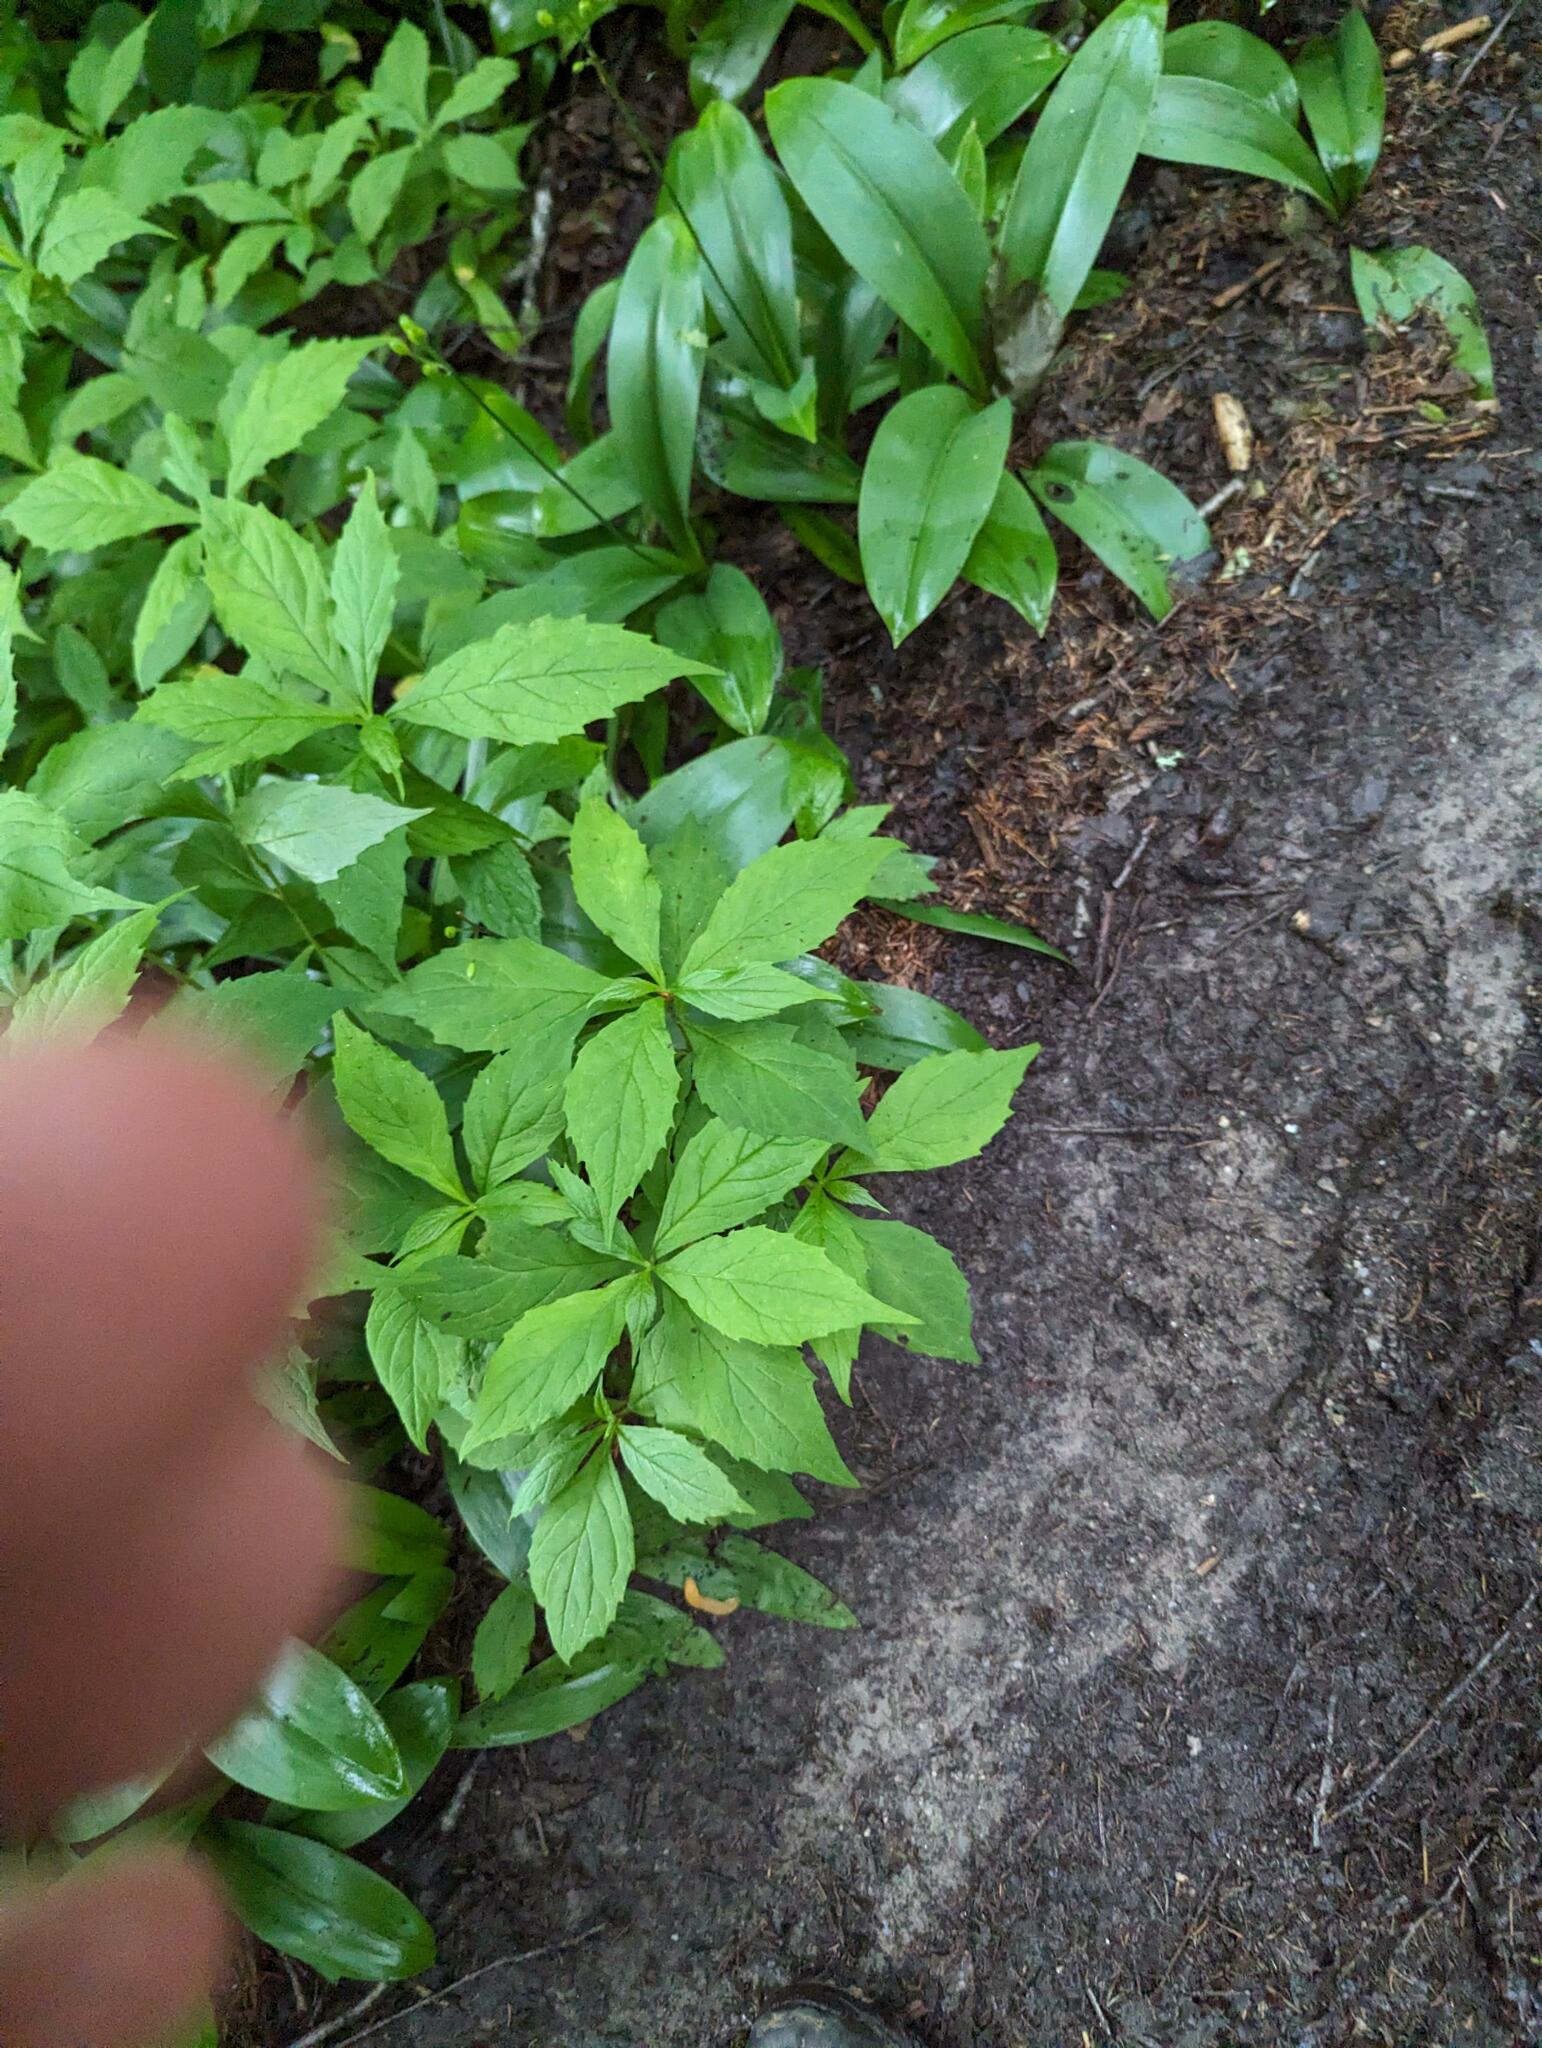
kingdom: Plantae
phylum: Tracheophyta
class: Magnoliopsida
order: Asterales
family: Asteraceae
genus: Oclemena
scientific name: Oclemena acuminata
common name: Mountain aster
